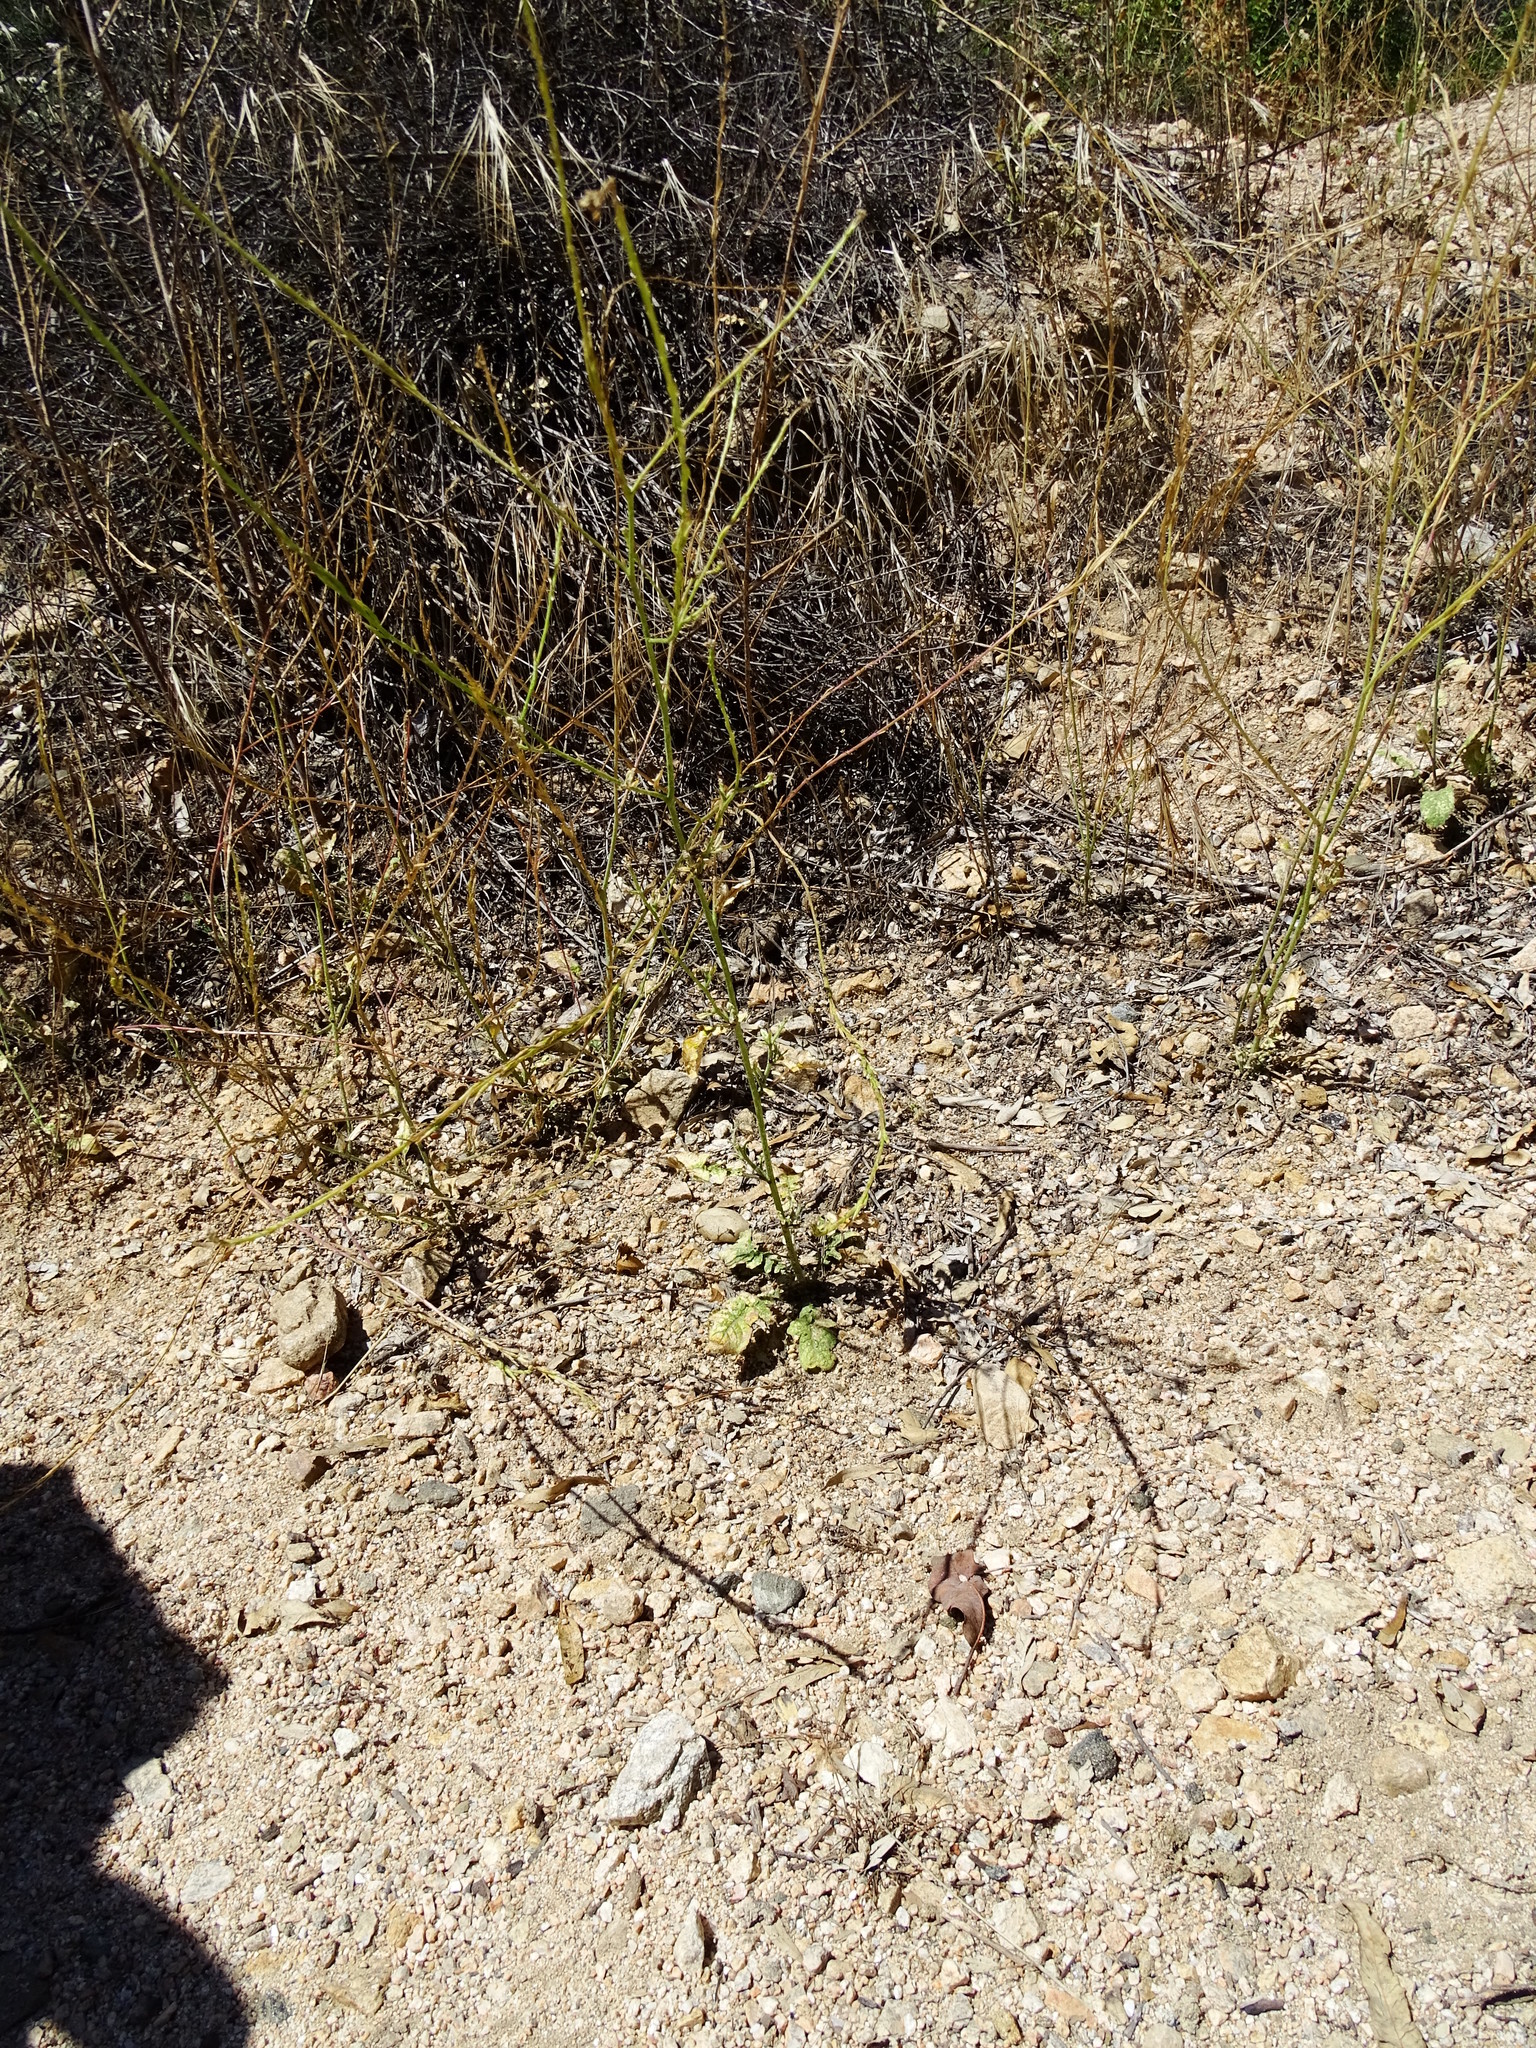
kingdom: Plantae
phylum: Tracheophyta
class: Magnoliopsida
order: Brassicales
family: Brassicaceae
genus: Hirschfeldia
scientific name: Hirschfeldia incana
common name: Hoary mustard
